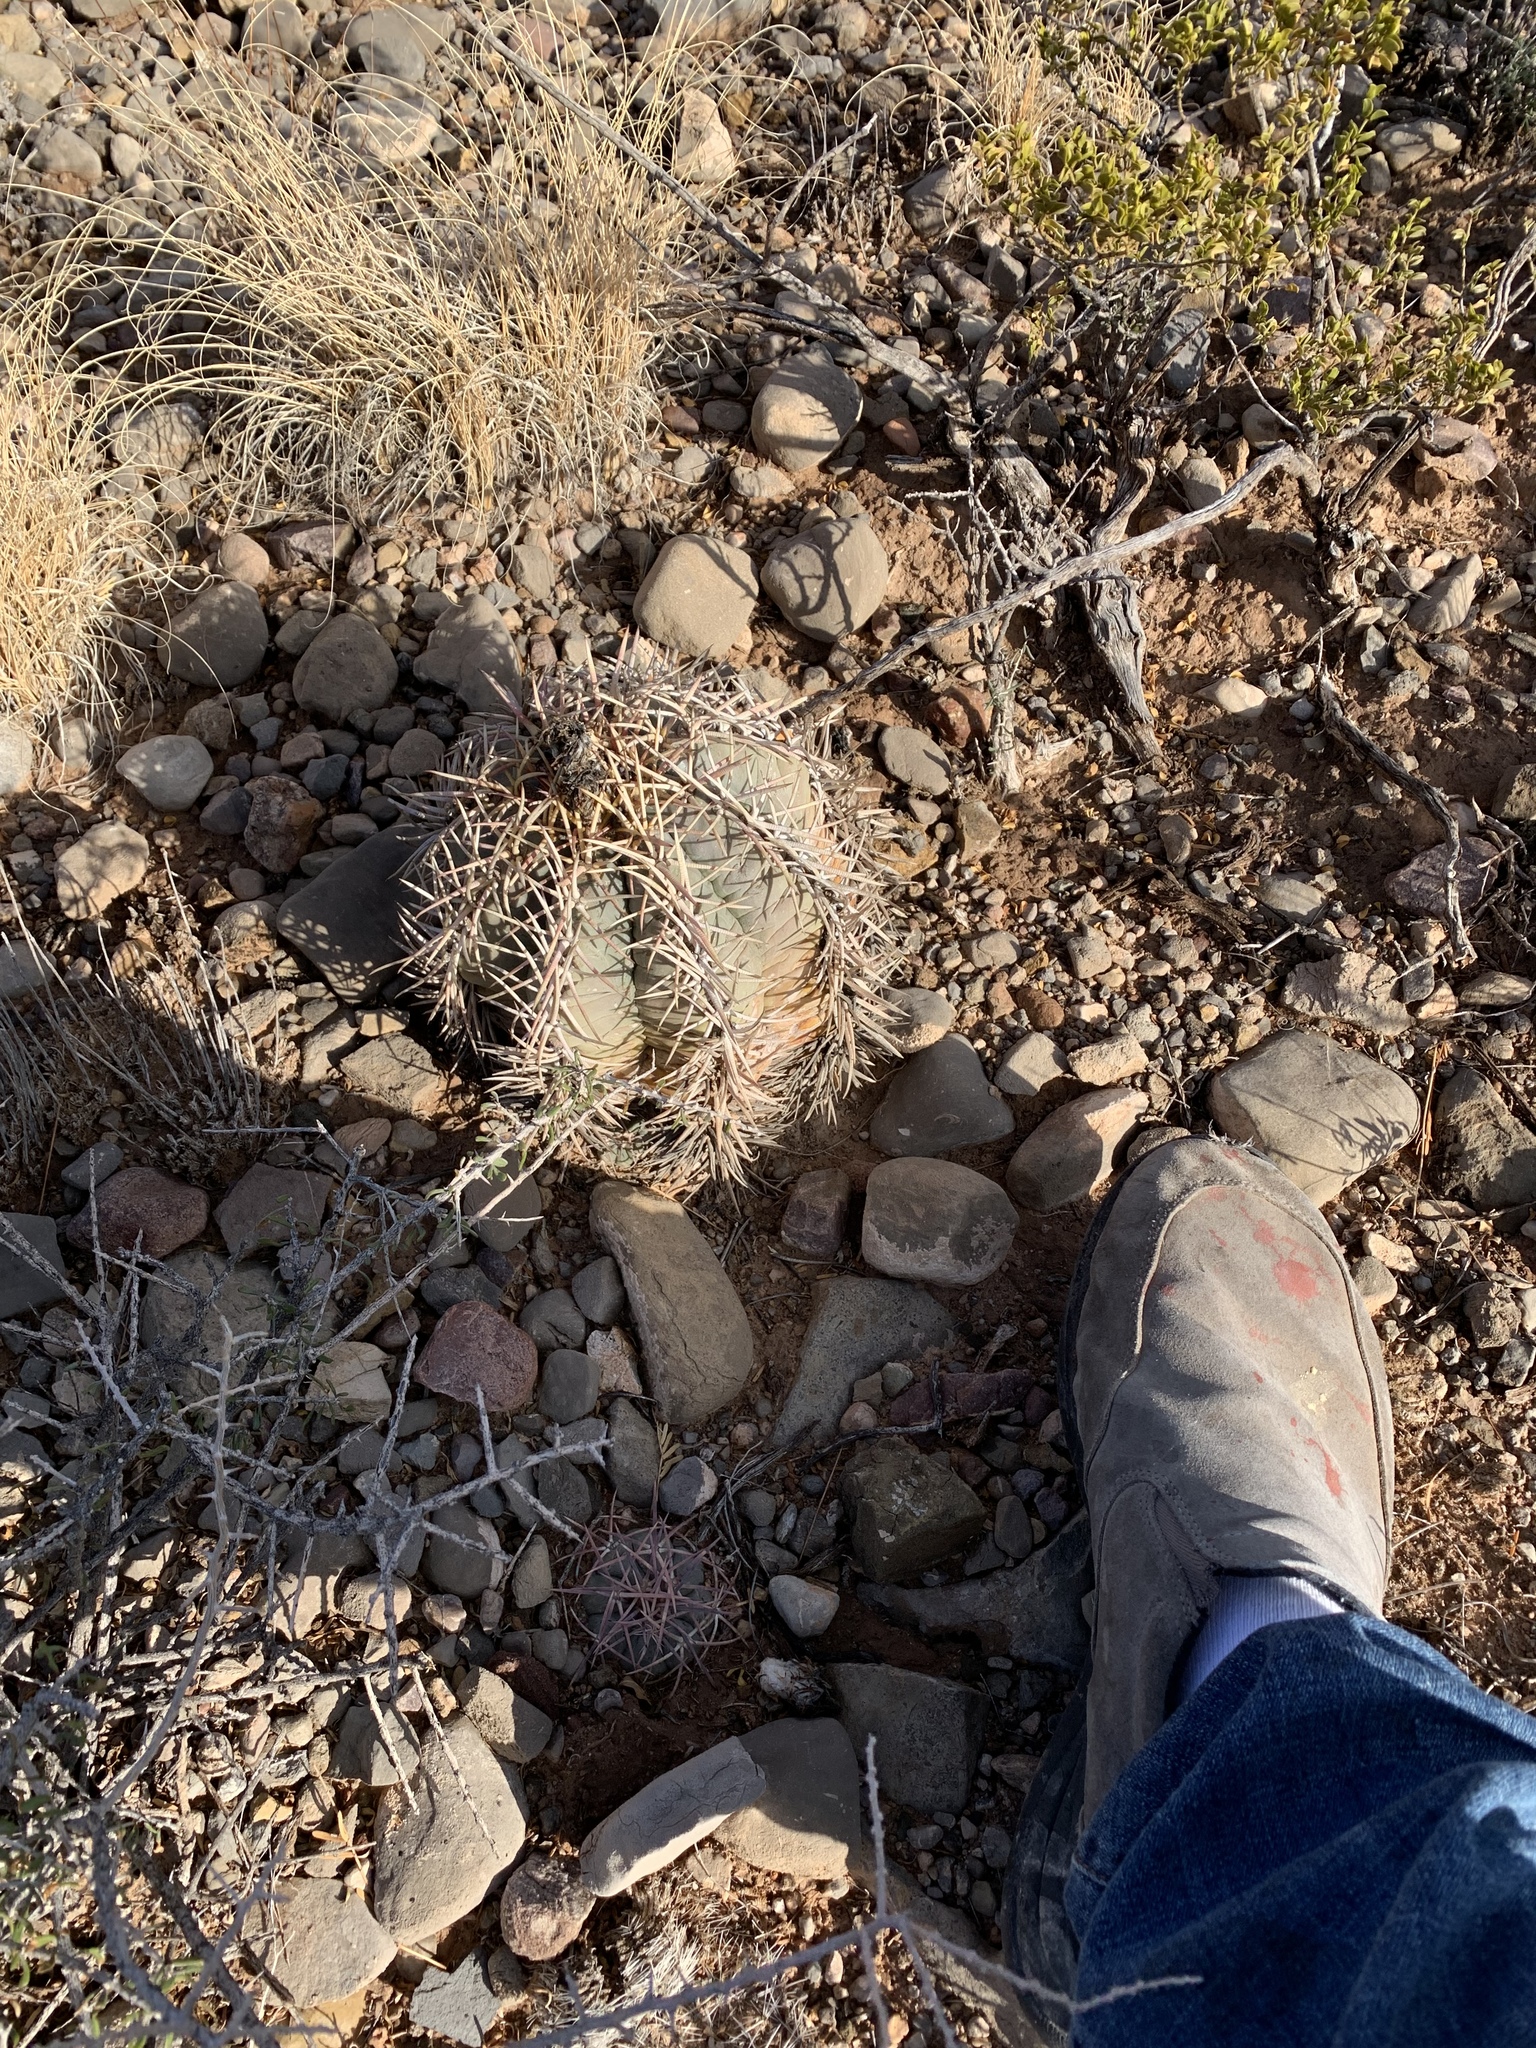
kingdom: Plantae
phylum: Tracheophyta
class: Magnoliopsida
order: Caryophyllales
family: Cactaceae
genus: Echinocactus
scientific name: Echinocactus horizonthalonius
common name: Devilshead
